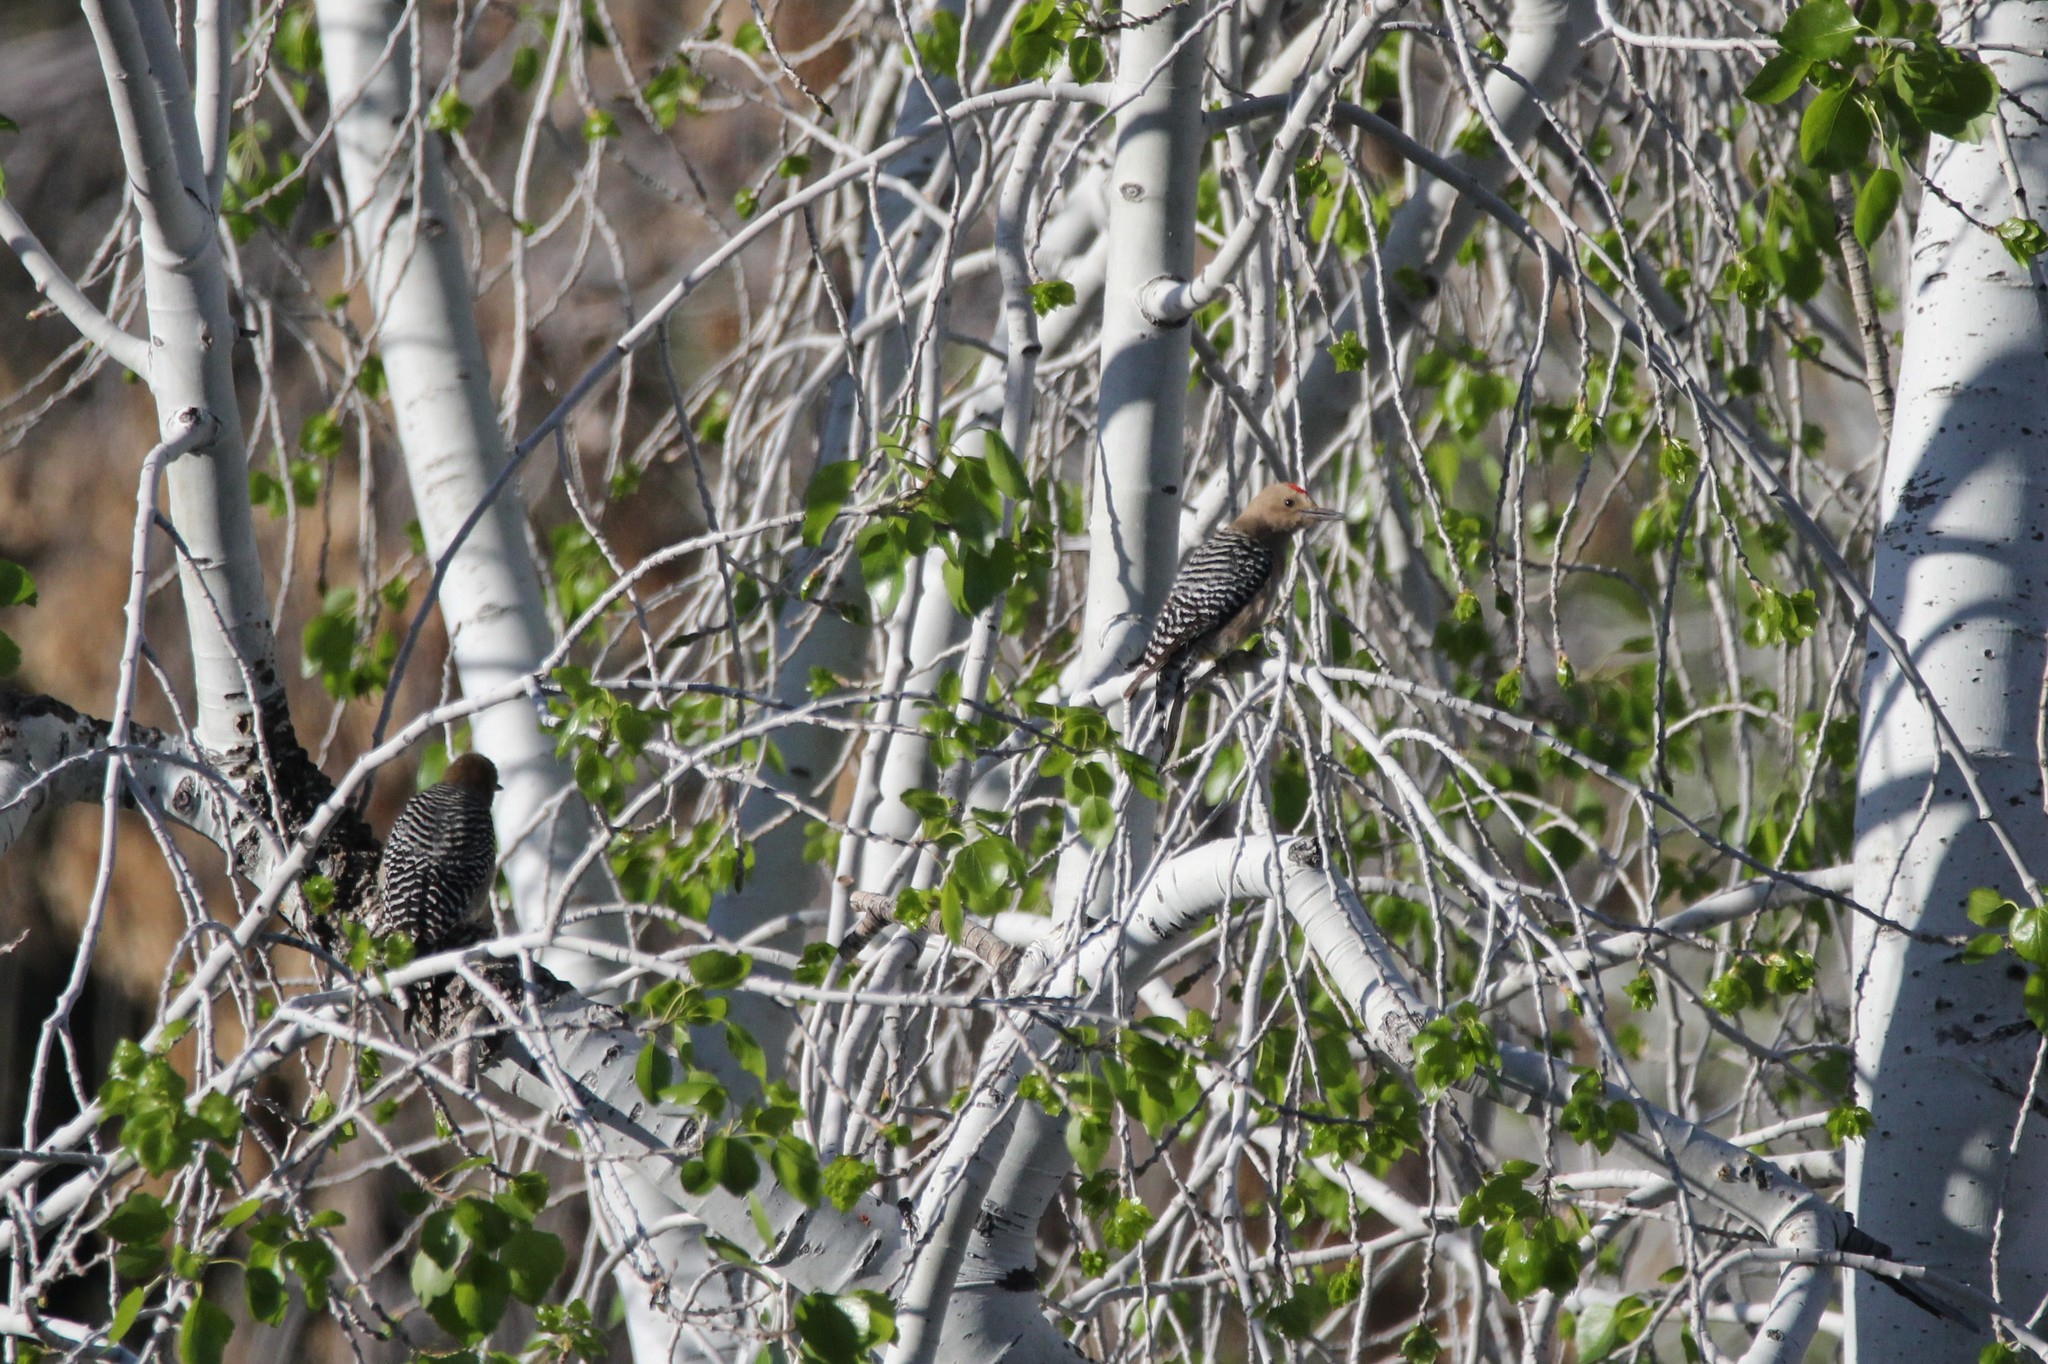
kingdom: Animalia
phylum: Chordata
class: Aves
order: Piciformes
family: Picidae
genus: Melanerpes
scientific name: Melanerpes uropygialis
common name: Gila woodpecker
